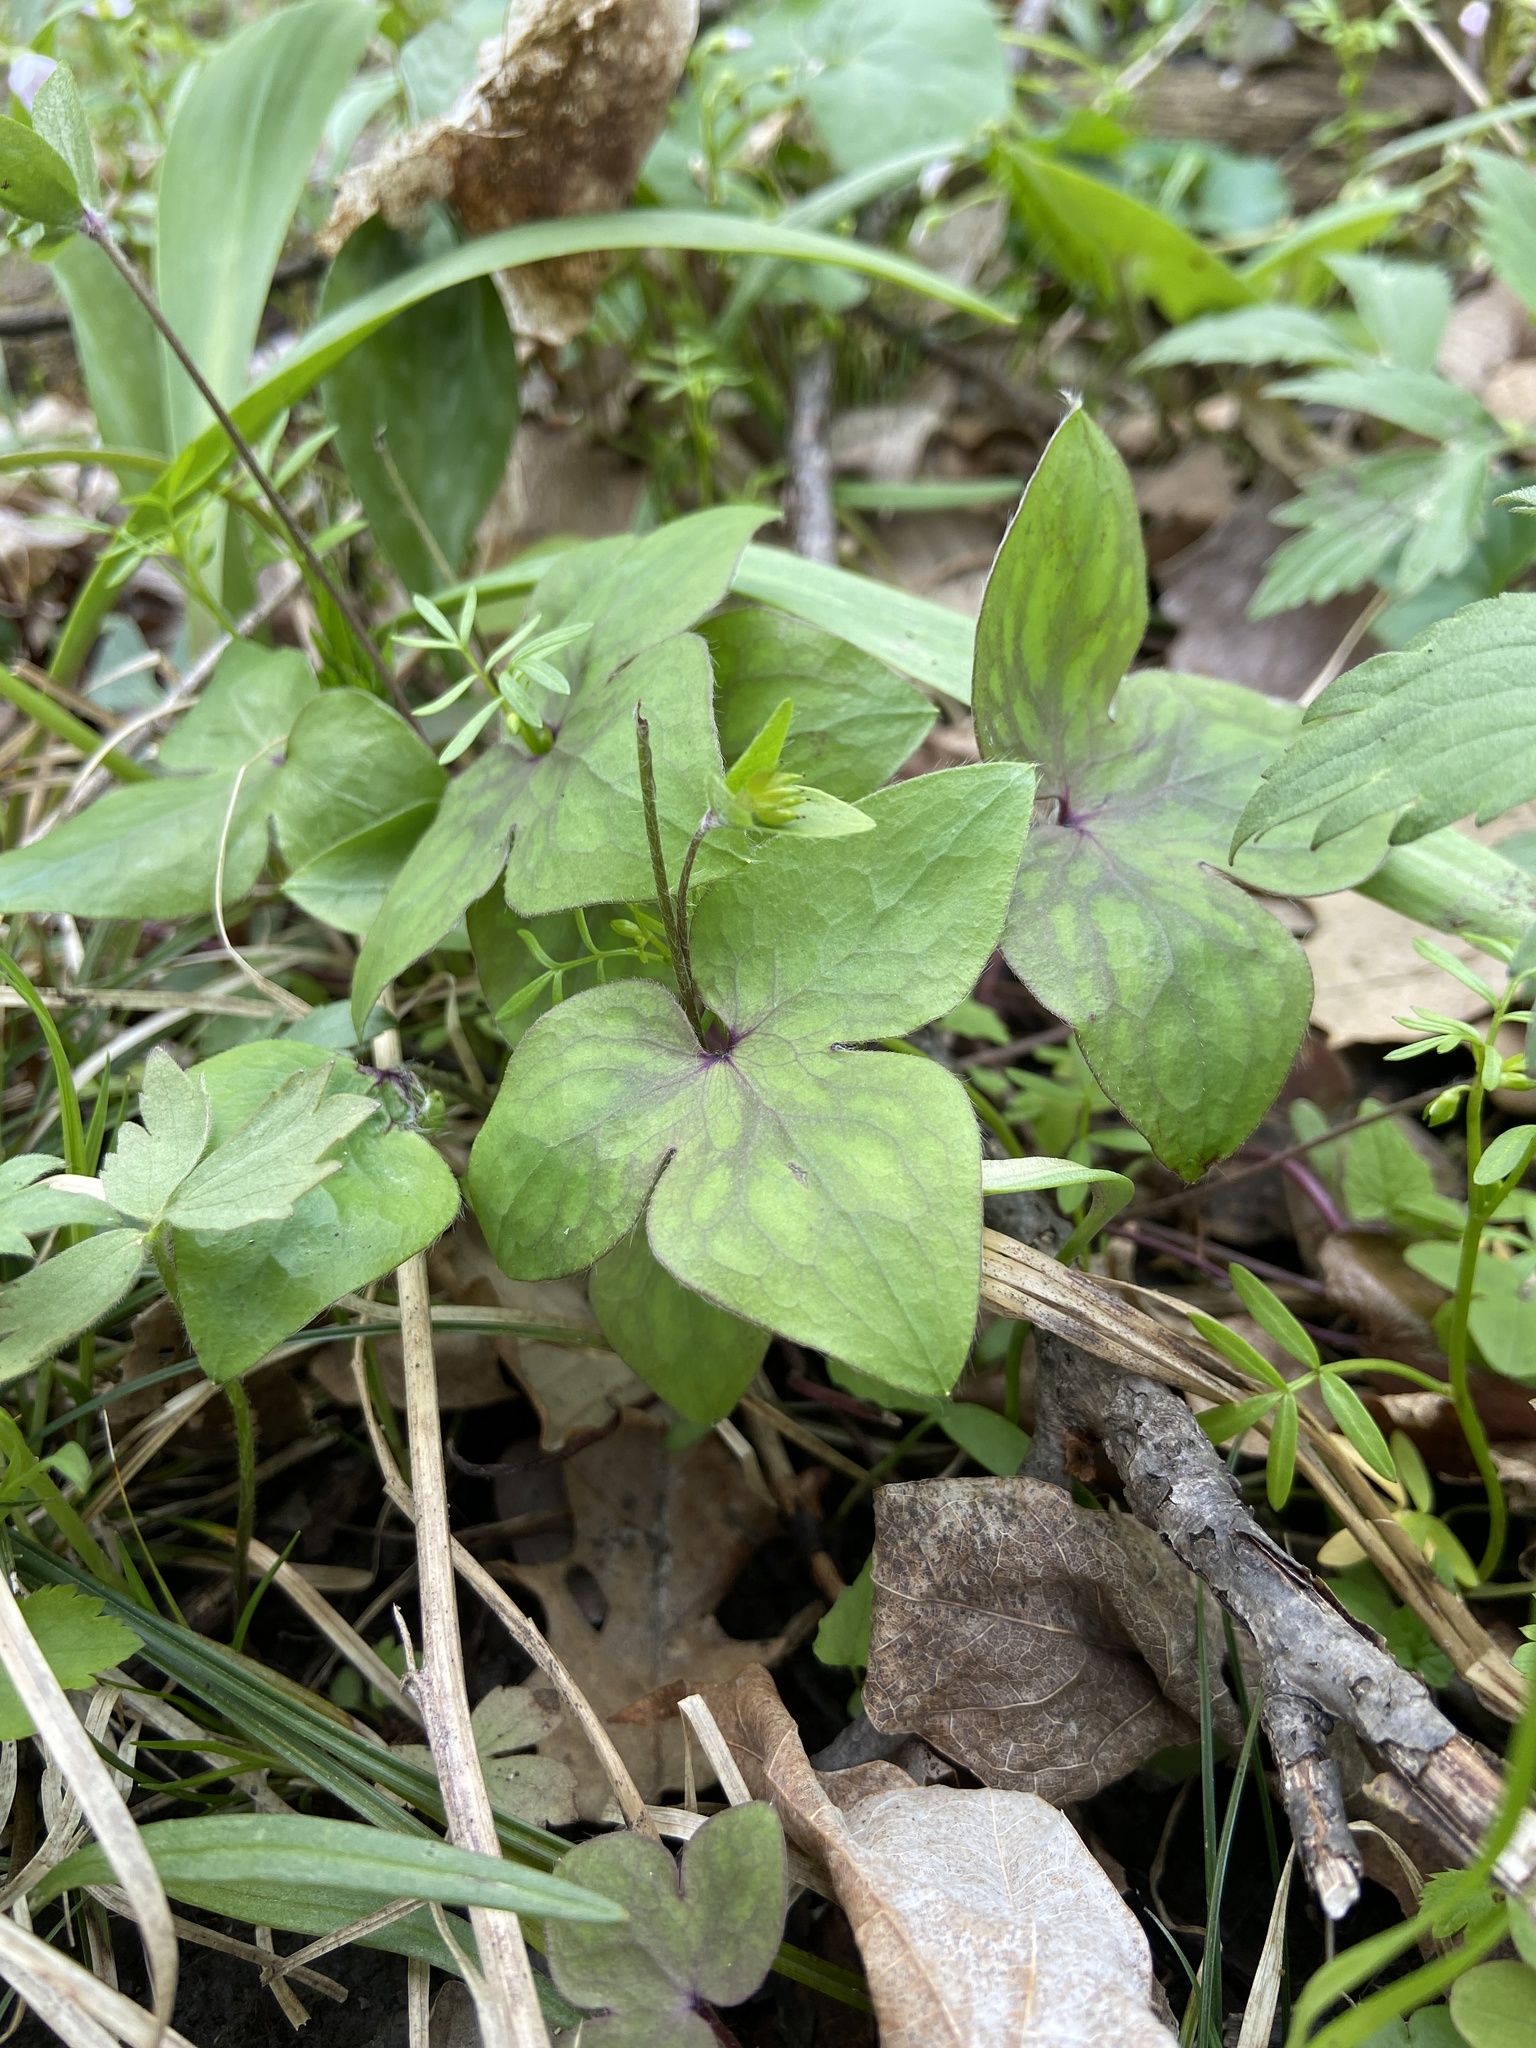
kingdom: Plantae
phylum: Tracheophyta
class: Magnoliopsida
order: Ranunculales
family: Ranunculaceae
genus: Hepatica
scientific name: Hepatica acutiloba
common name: Sharp-lobed hepatica
